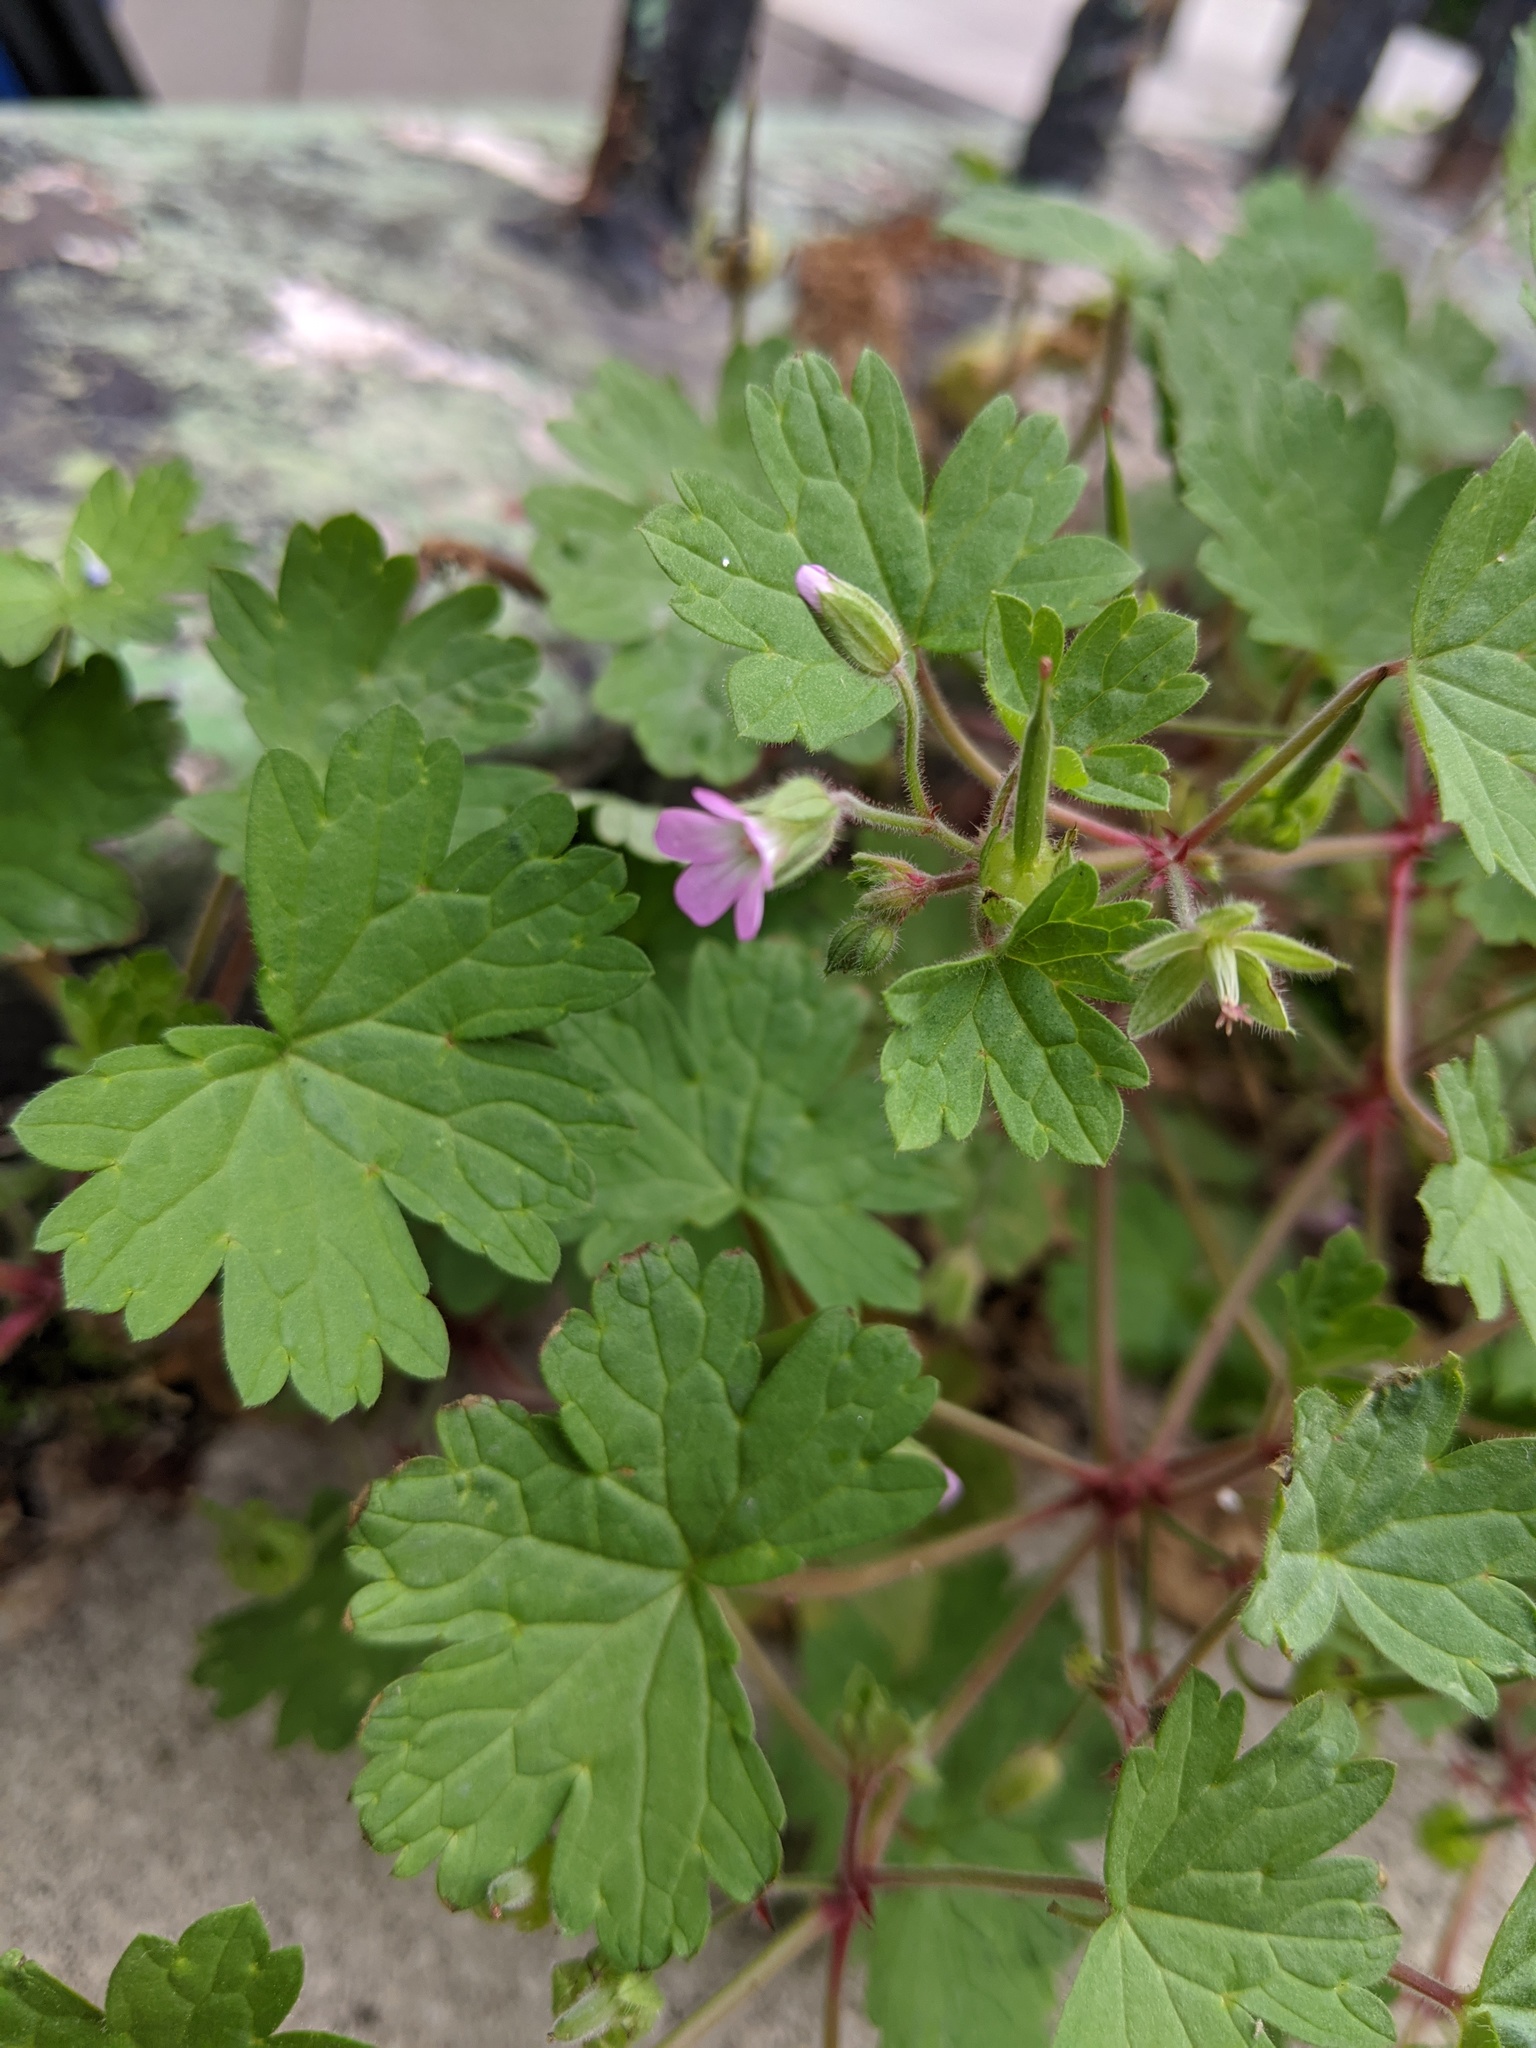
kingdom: Plantae
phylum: Tracheophyta
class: Magnoliopsida
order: Geraniales
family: Geraniaceae
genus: Geranium
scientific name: Geranium rotundifolium
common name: Round-leaved crane's-bill
